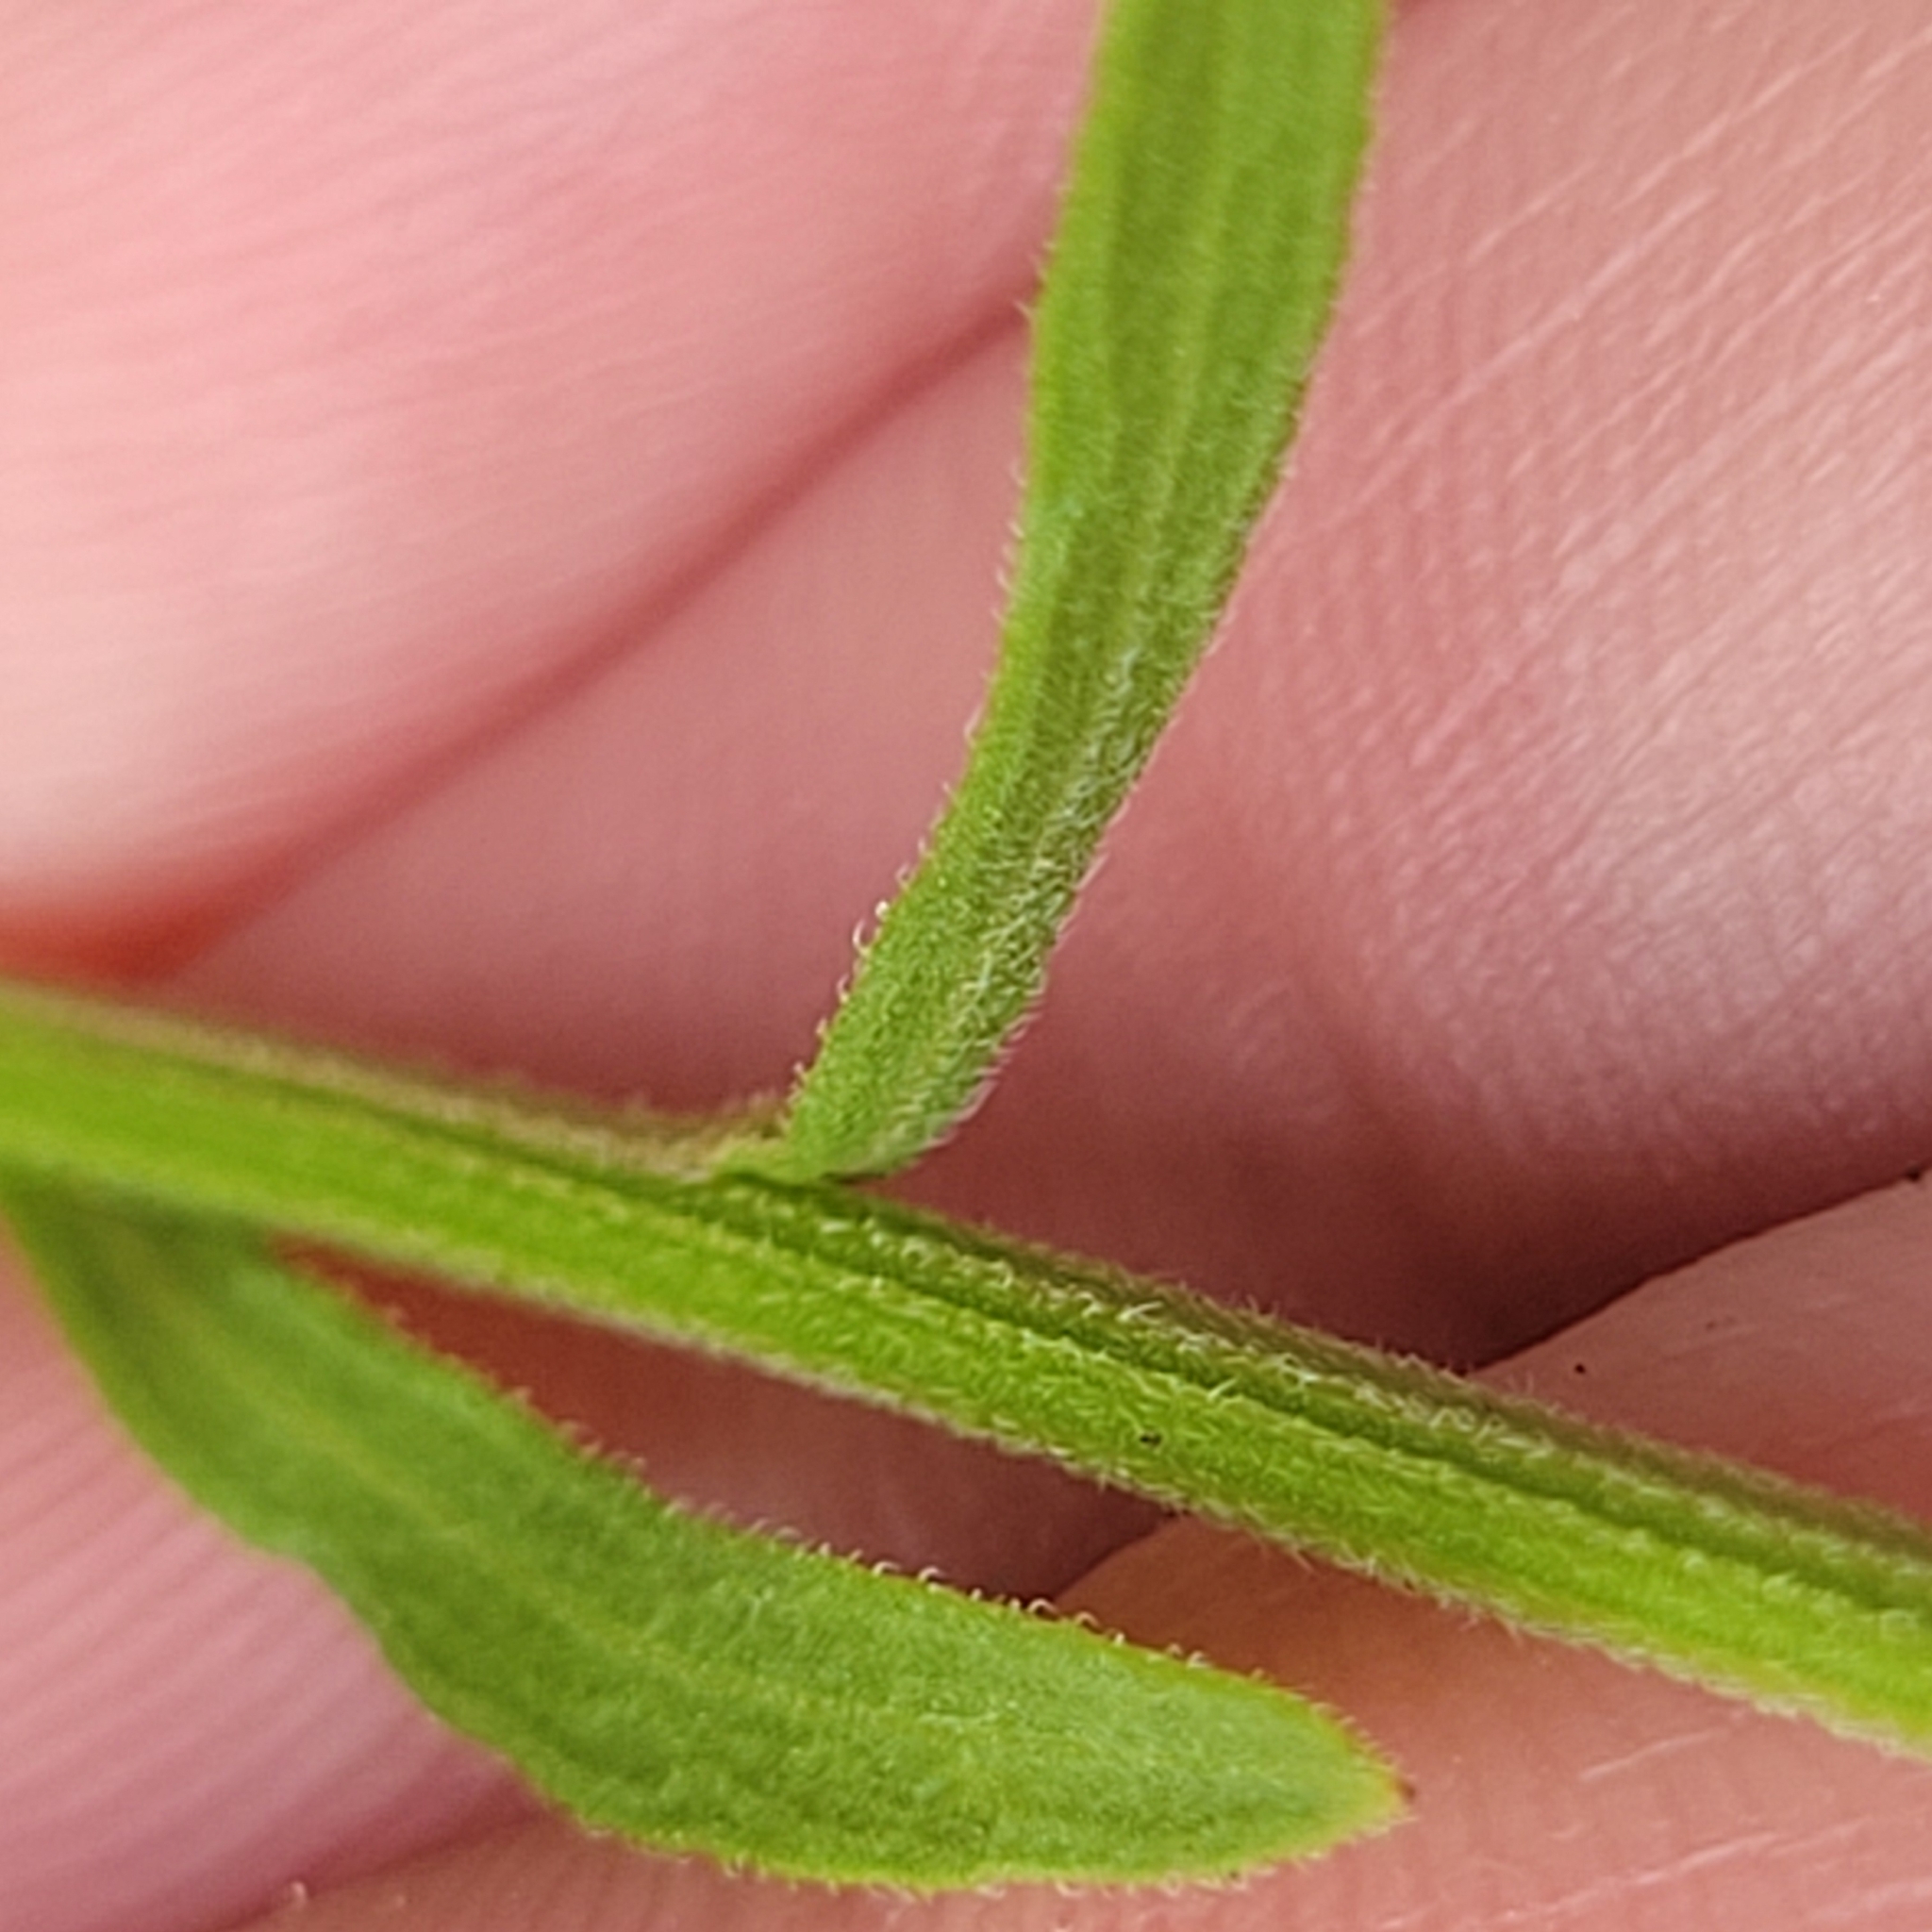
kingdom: Plantae
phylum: Tracheophyta
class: Magnoliopsida
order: Asterales
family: Asteraceae
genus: Erigeron
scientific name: Erigeron strigosus
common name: Common eastern fleabane
